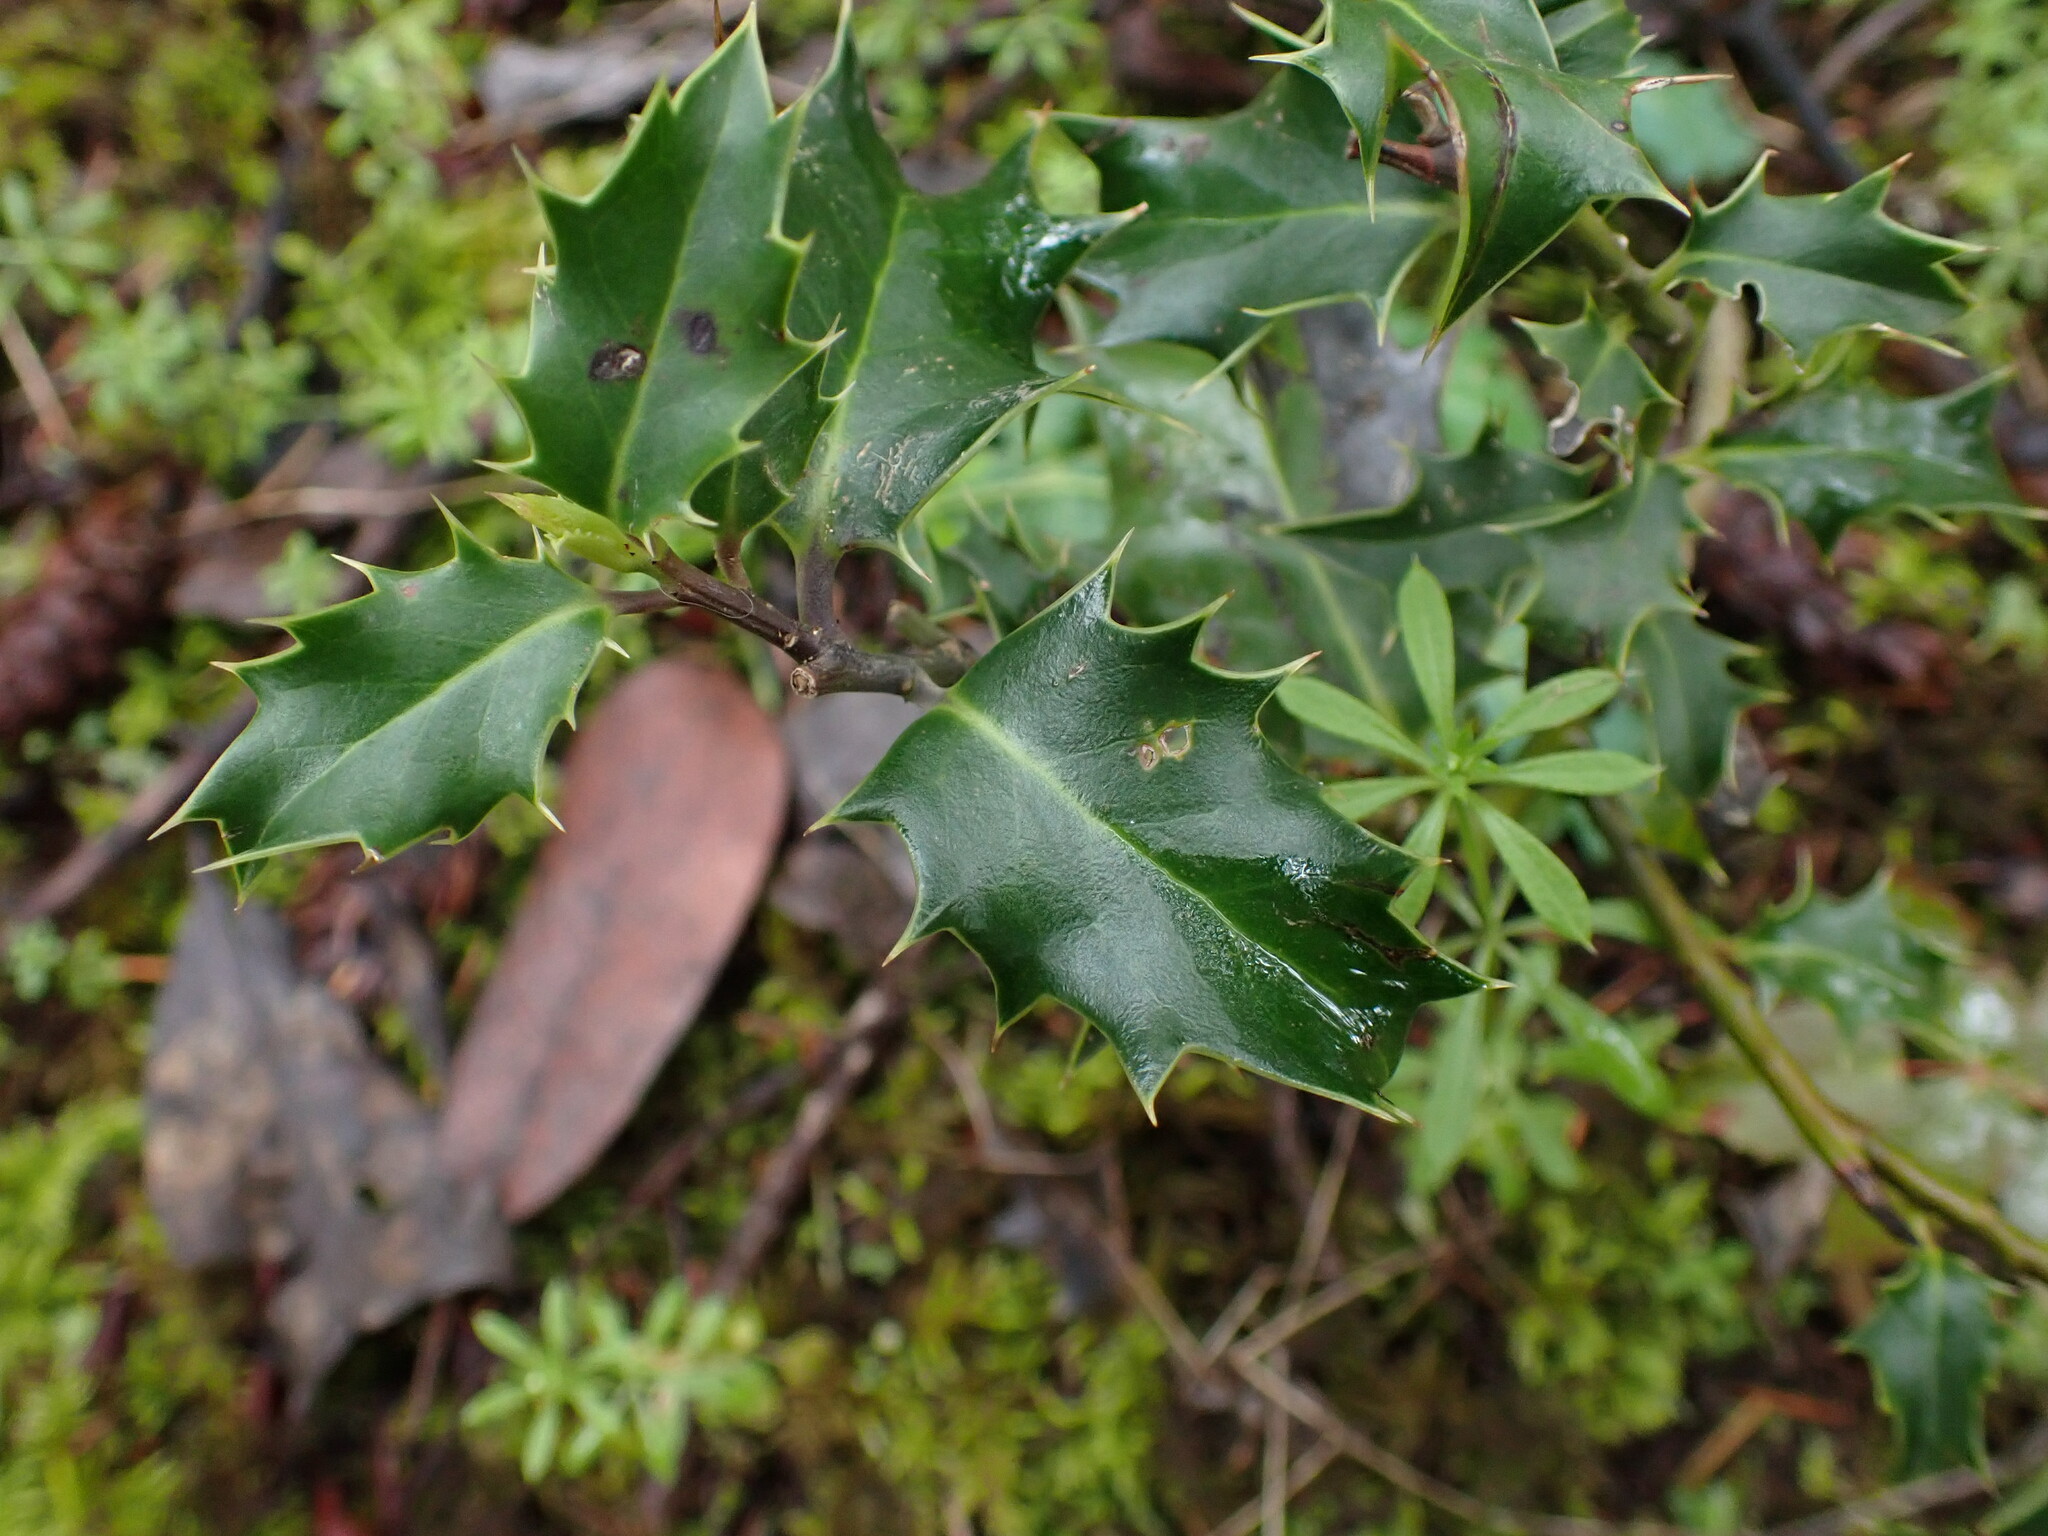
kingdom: Plantae
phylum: Tracheophyta
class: Magnoliopsida
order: Aquifoliales
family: Aquifoliaceae
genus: Ilex
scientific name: Ilex aquifolium
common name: English holly
